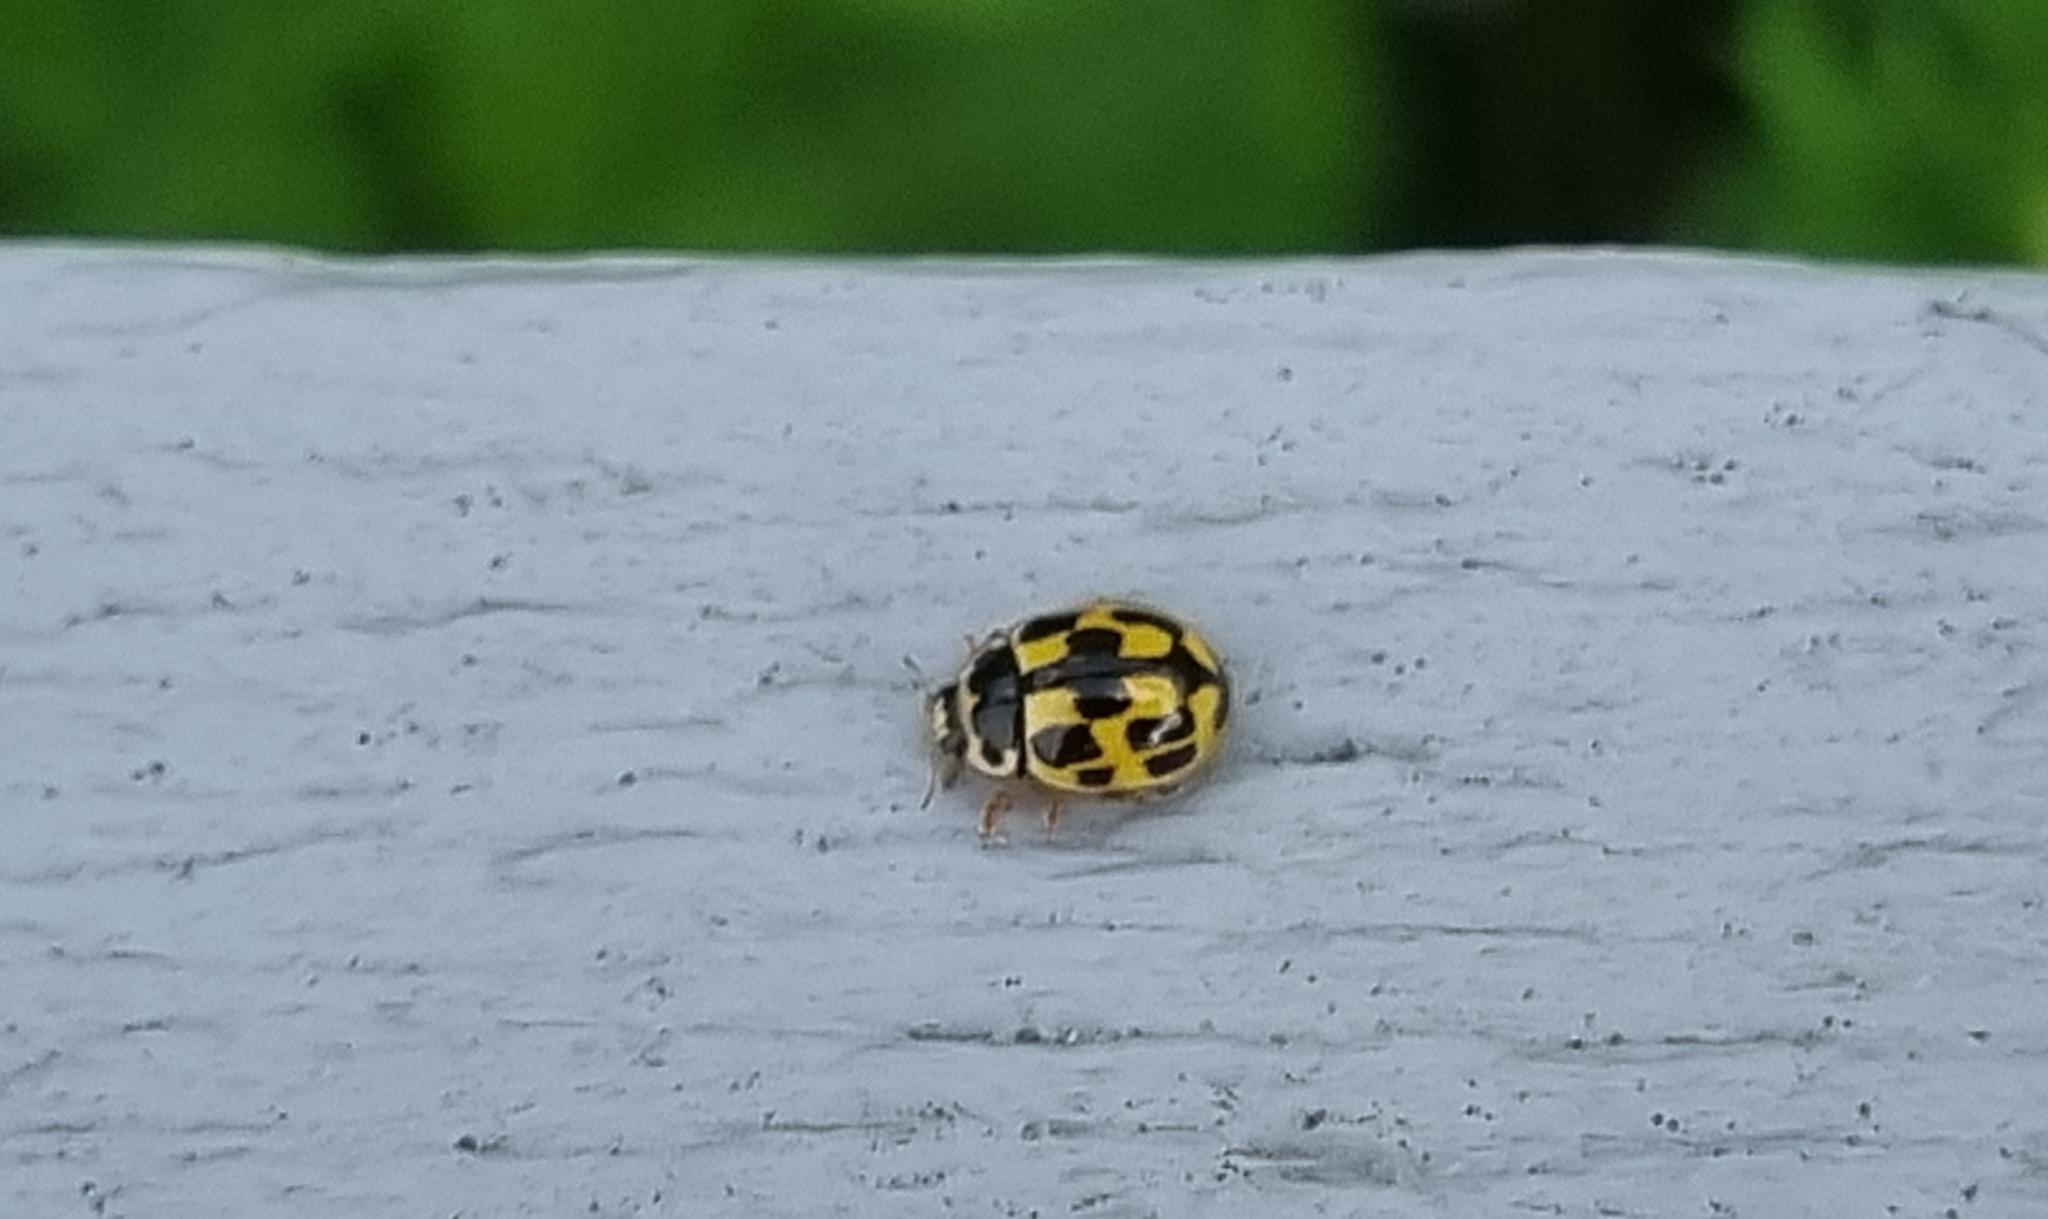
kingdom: Animalia
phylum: Arthropoda
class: Insecta
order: Coleoptera
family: Coccinellidae
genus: Propylaea
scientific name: Propylaea quatuordecimpunctata
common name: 14-spotted ladybird beetle
